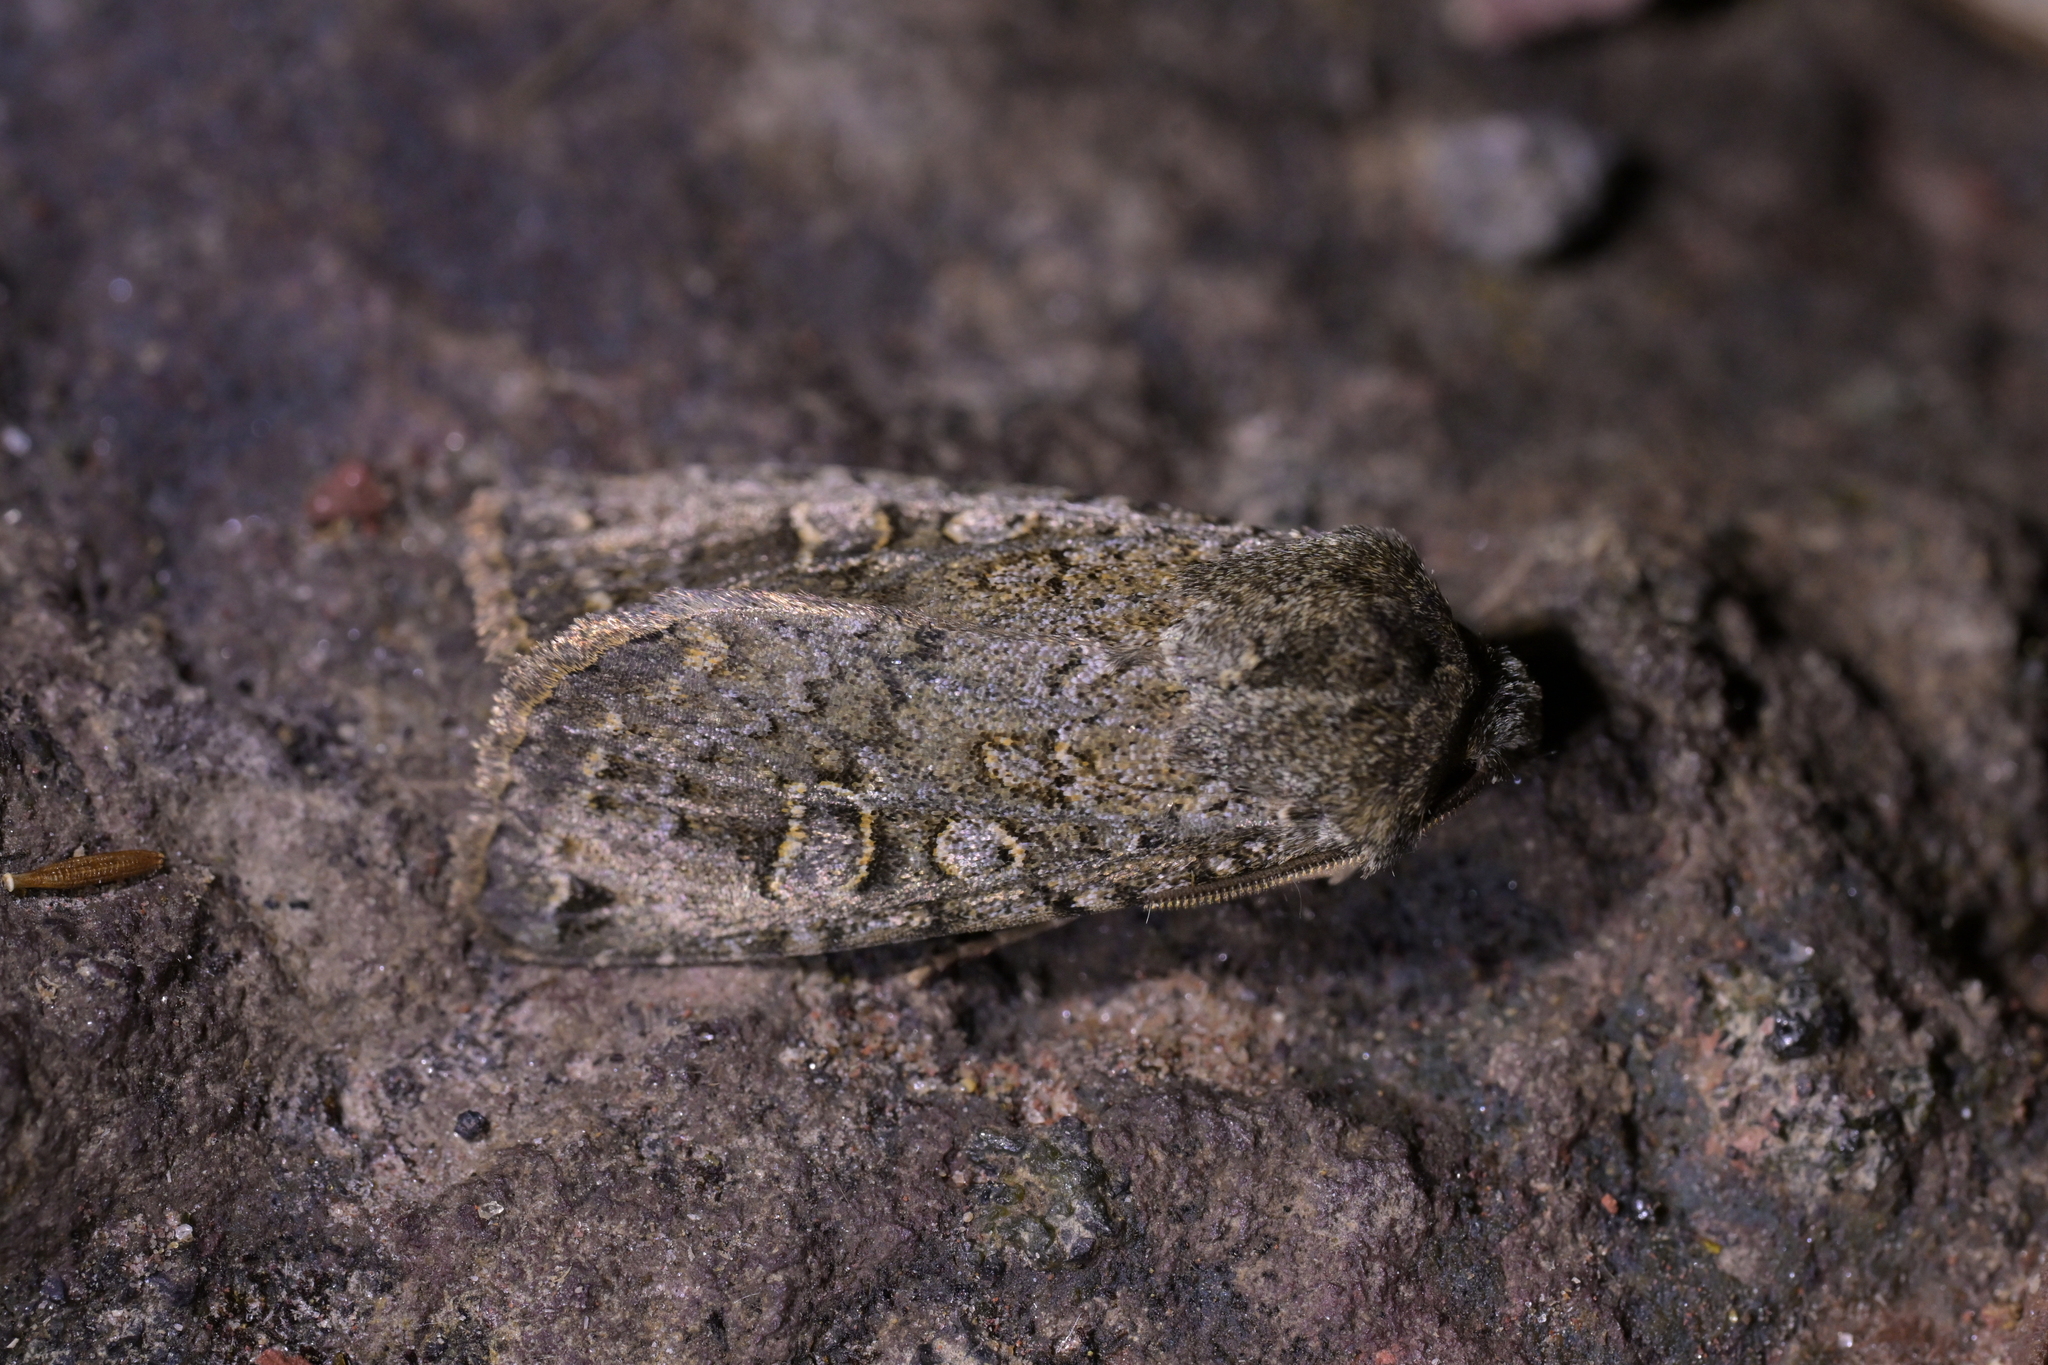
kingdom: Animalia
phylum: Arthropoda
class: Insecta
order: Lepidoptera
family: Noctuidae
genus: Ichneutica
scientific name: Ichneutica
